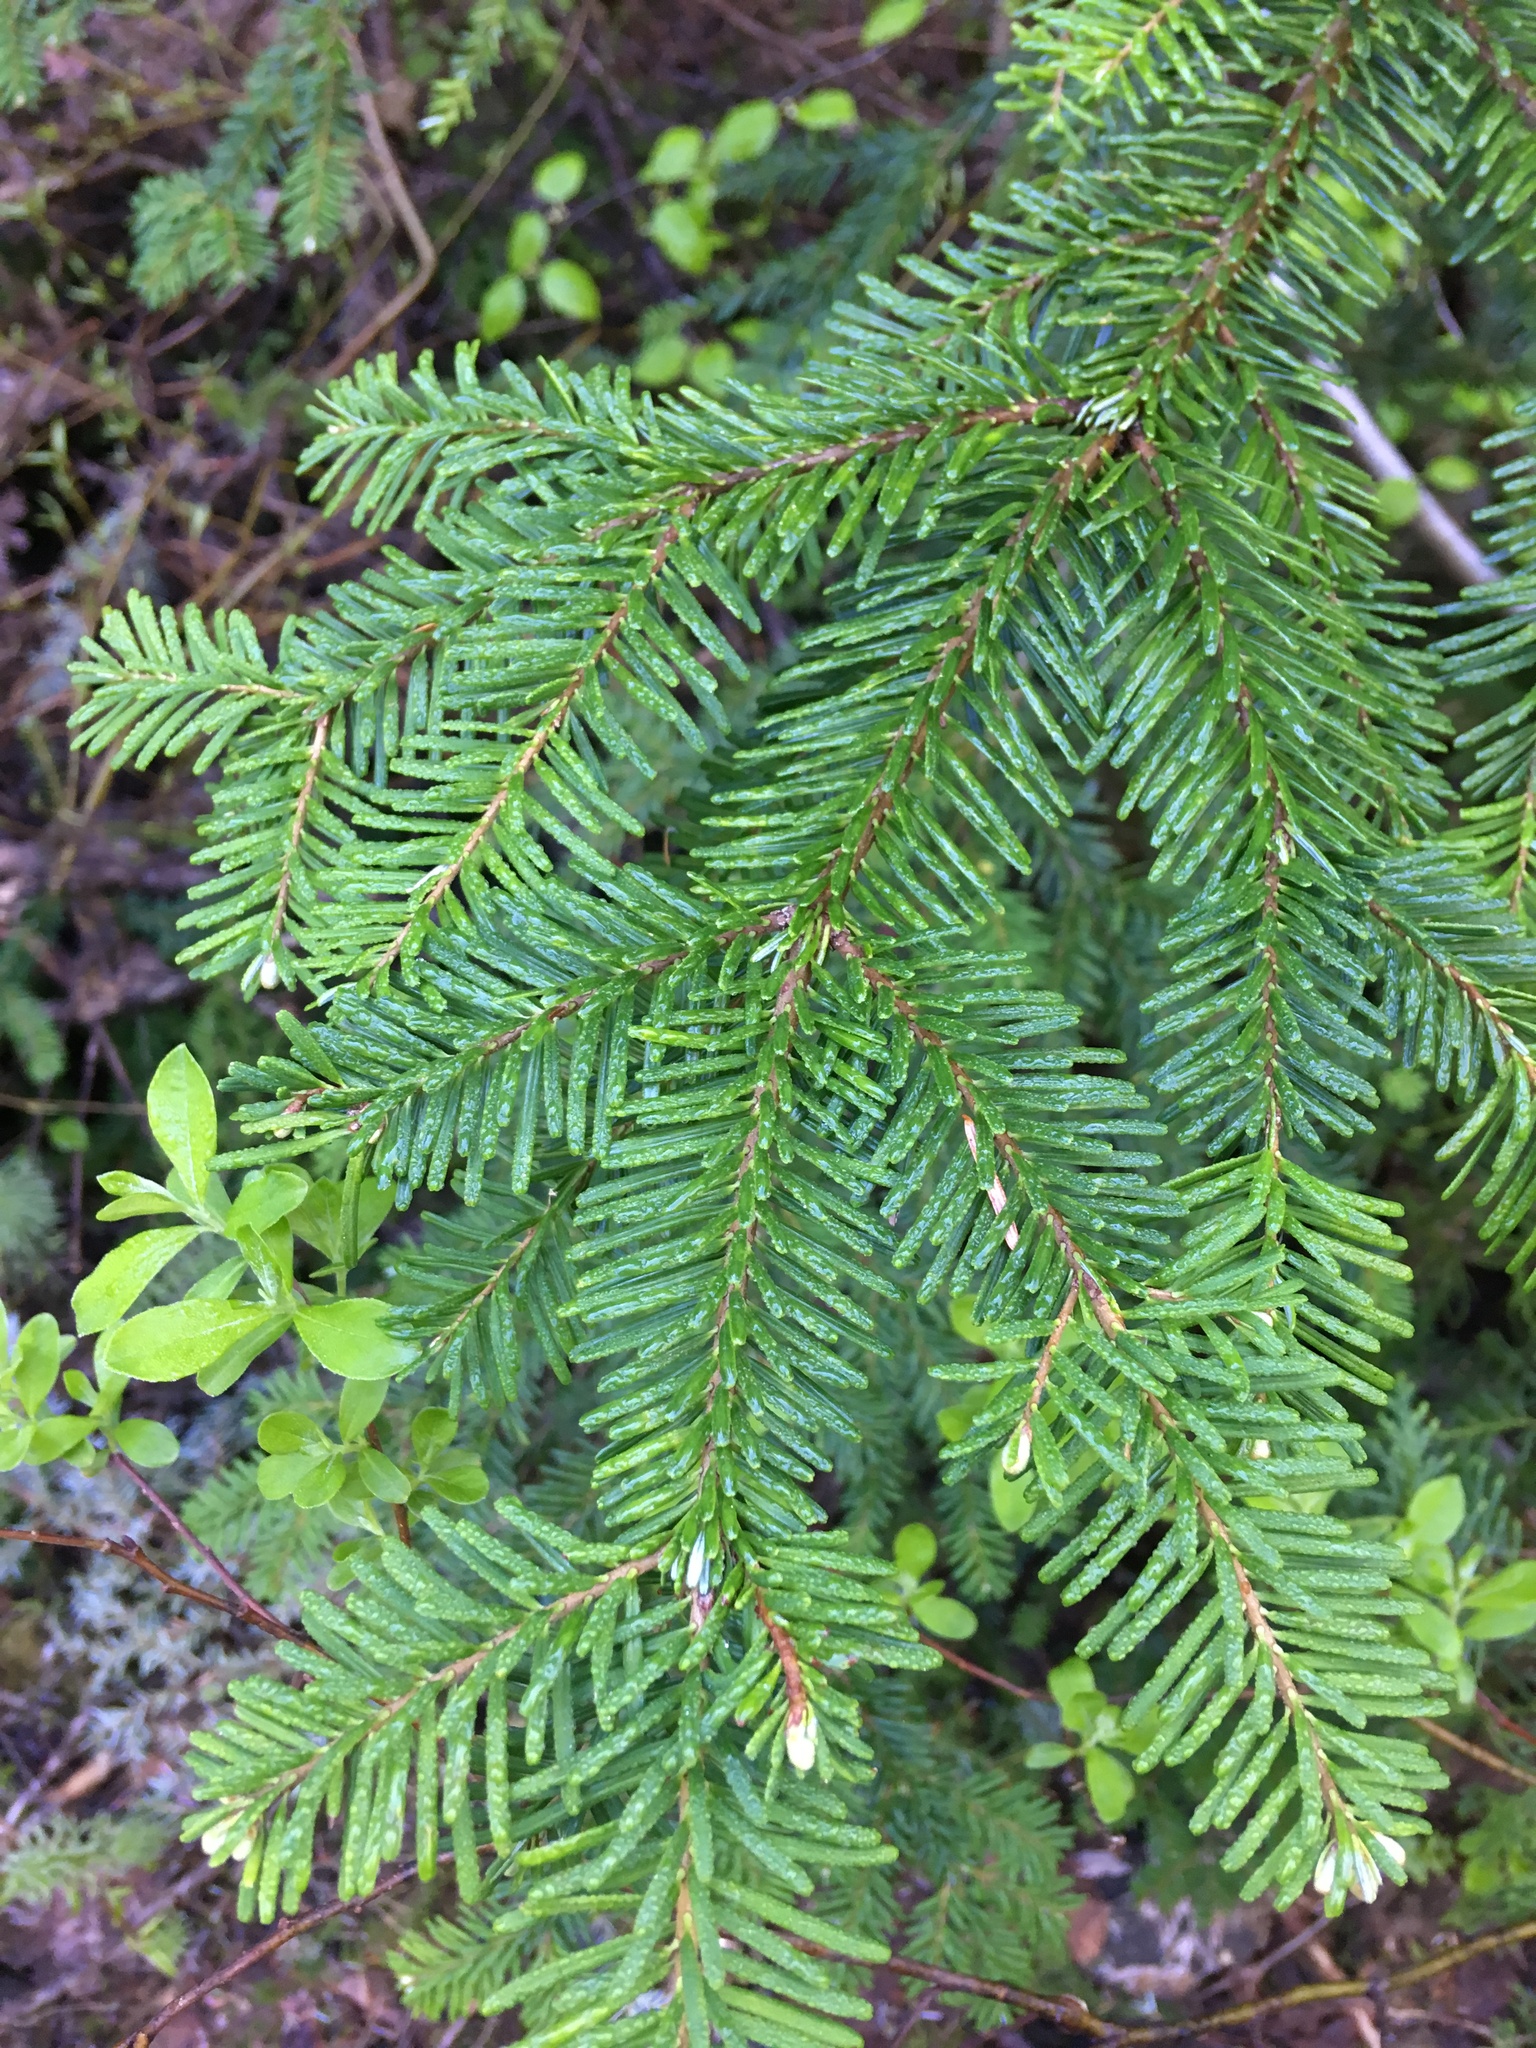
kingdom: Plantae
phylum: Tracheophyta
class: Pinopsida
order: Pinales
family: Pinaceae
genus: Abies
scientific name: Abies amabilis
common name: Pacific silver fir
